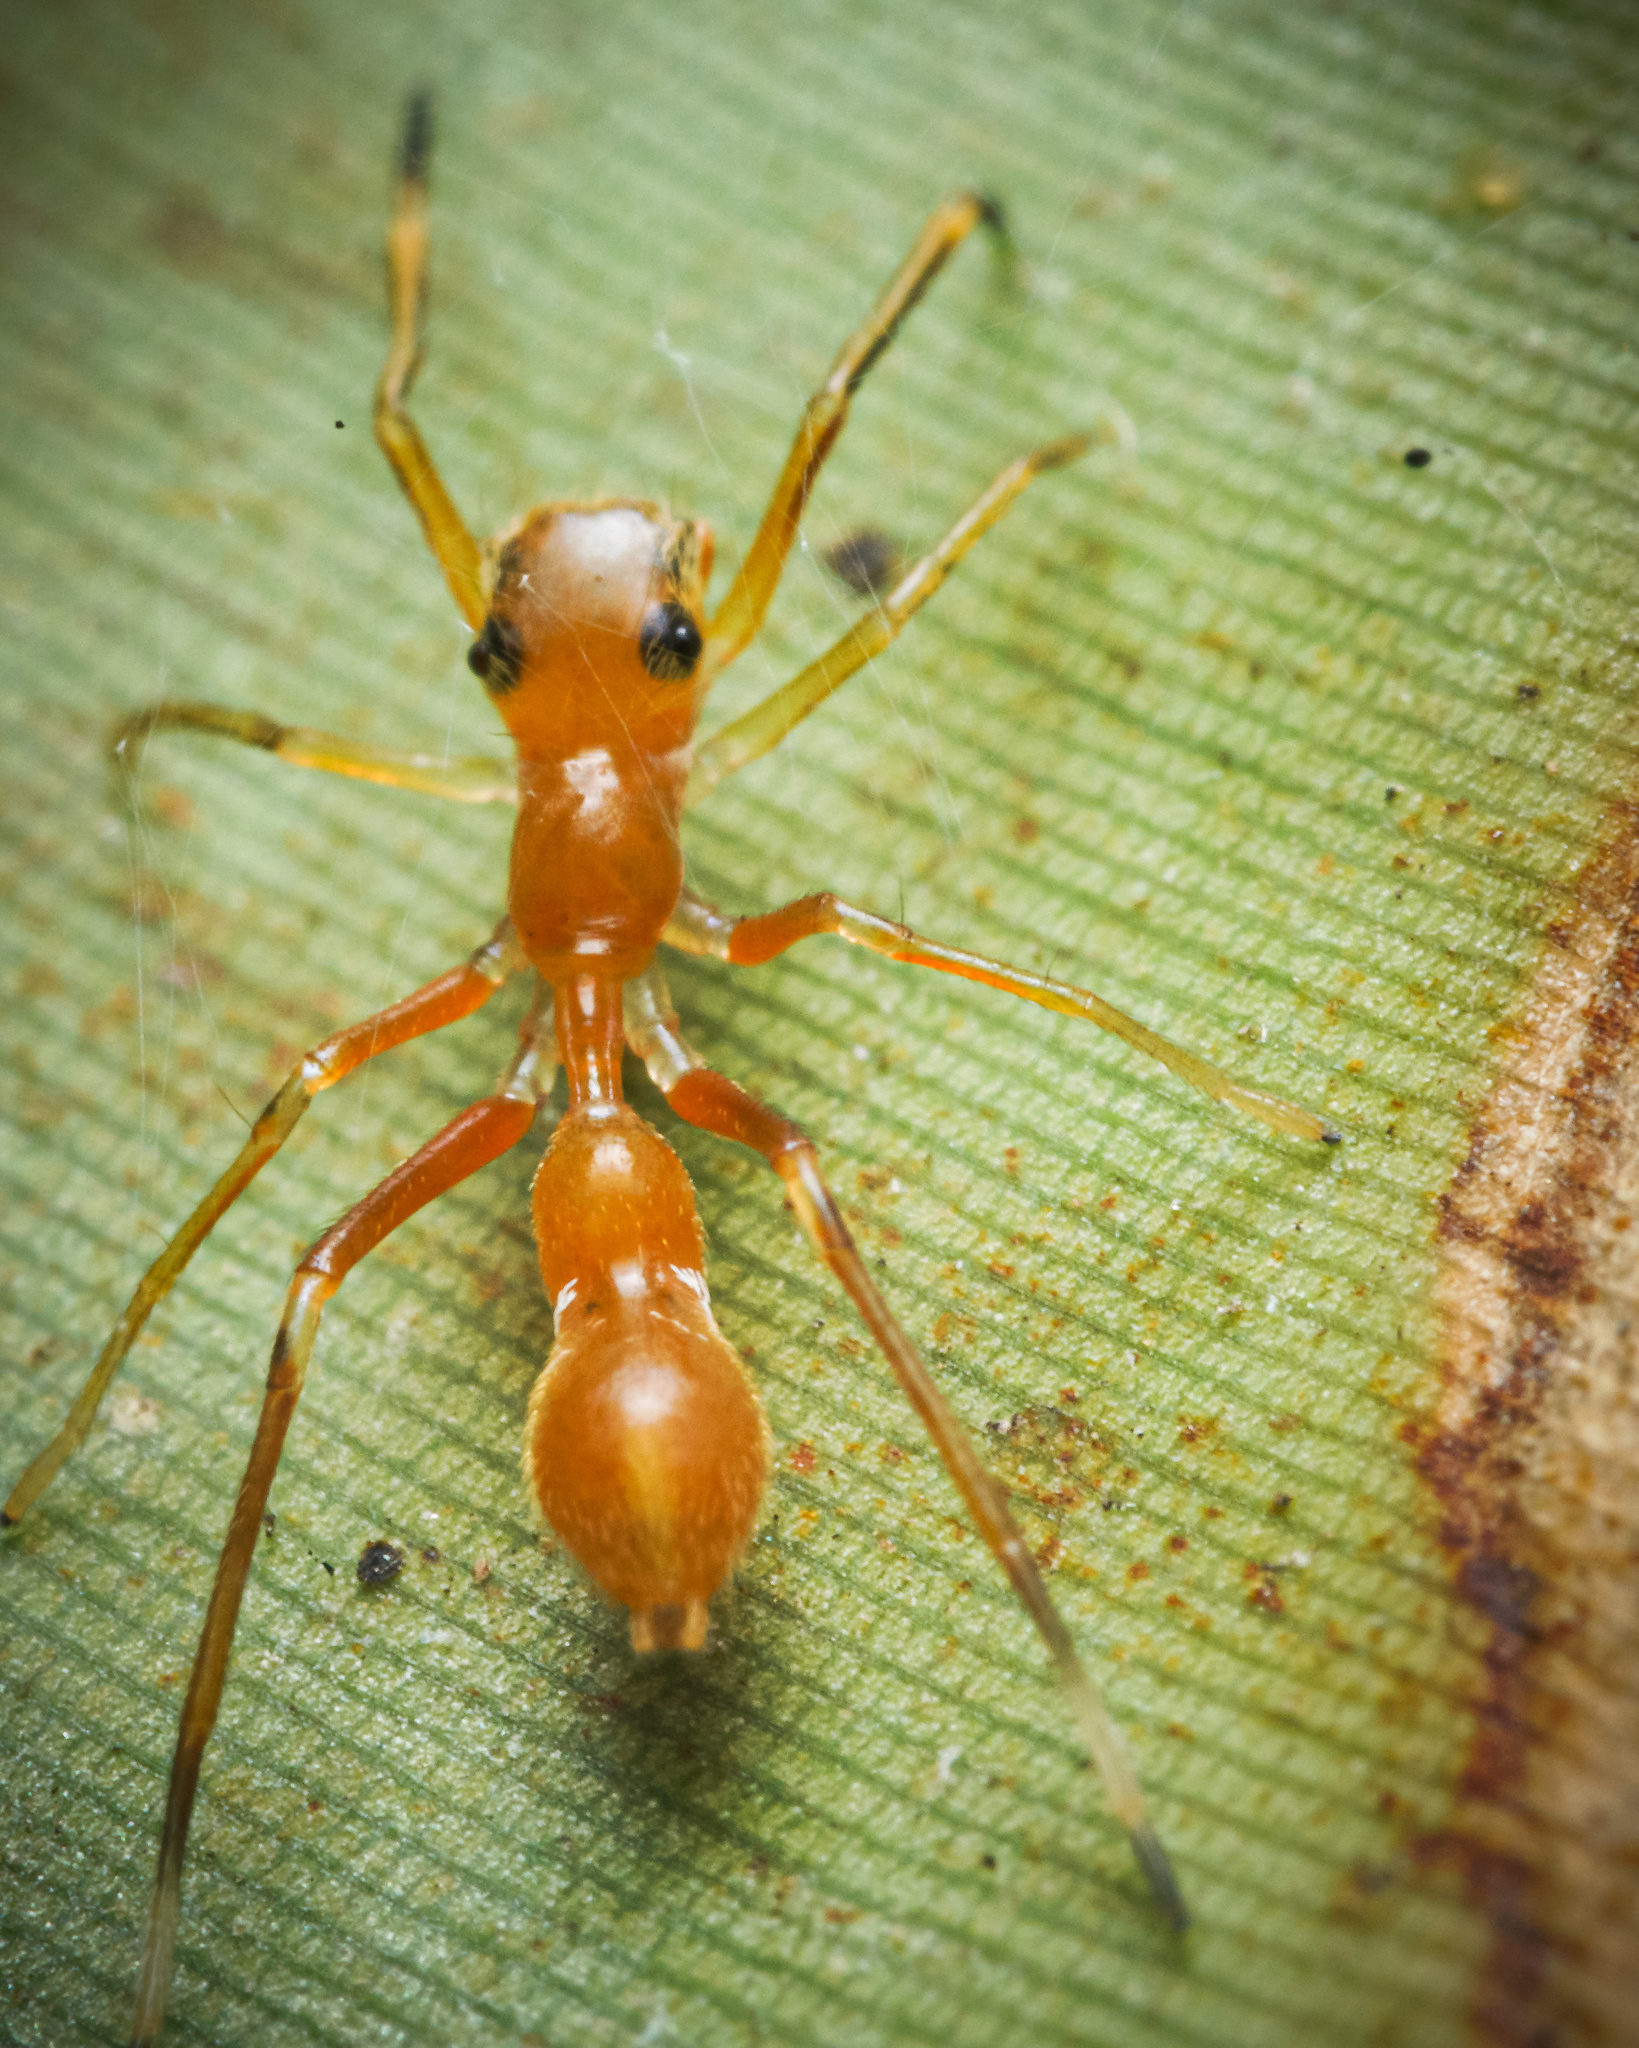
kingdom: Animalia
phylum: Arthropoda
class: Arachnida
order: Araneae
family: Salticidae
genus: Myrmarachne
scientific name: Myrmarachne assimilis
